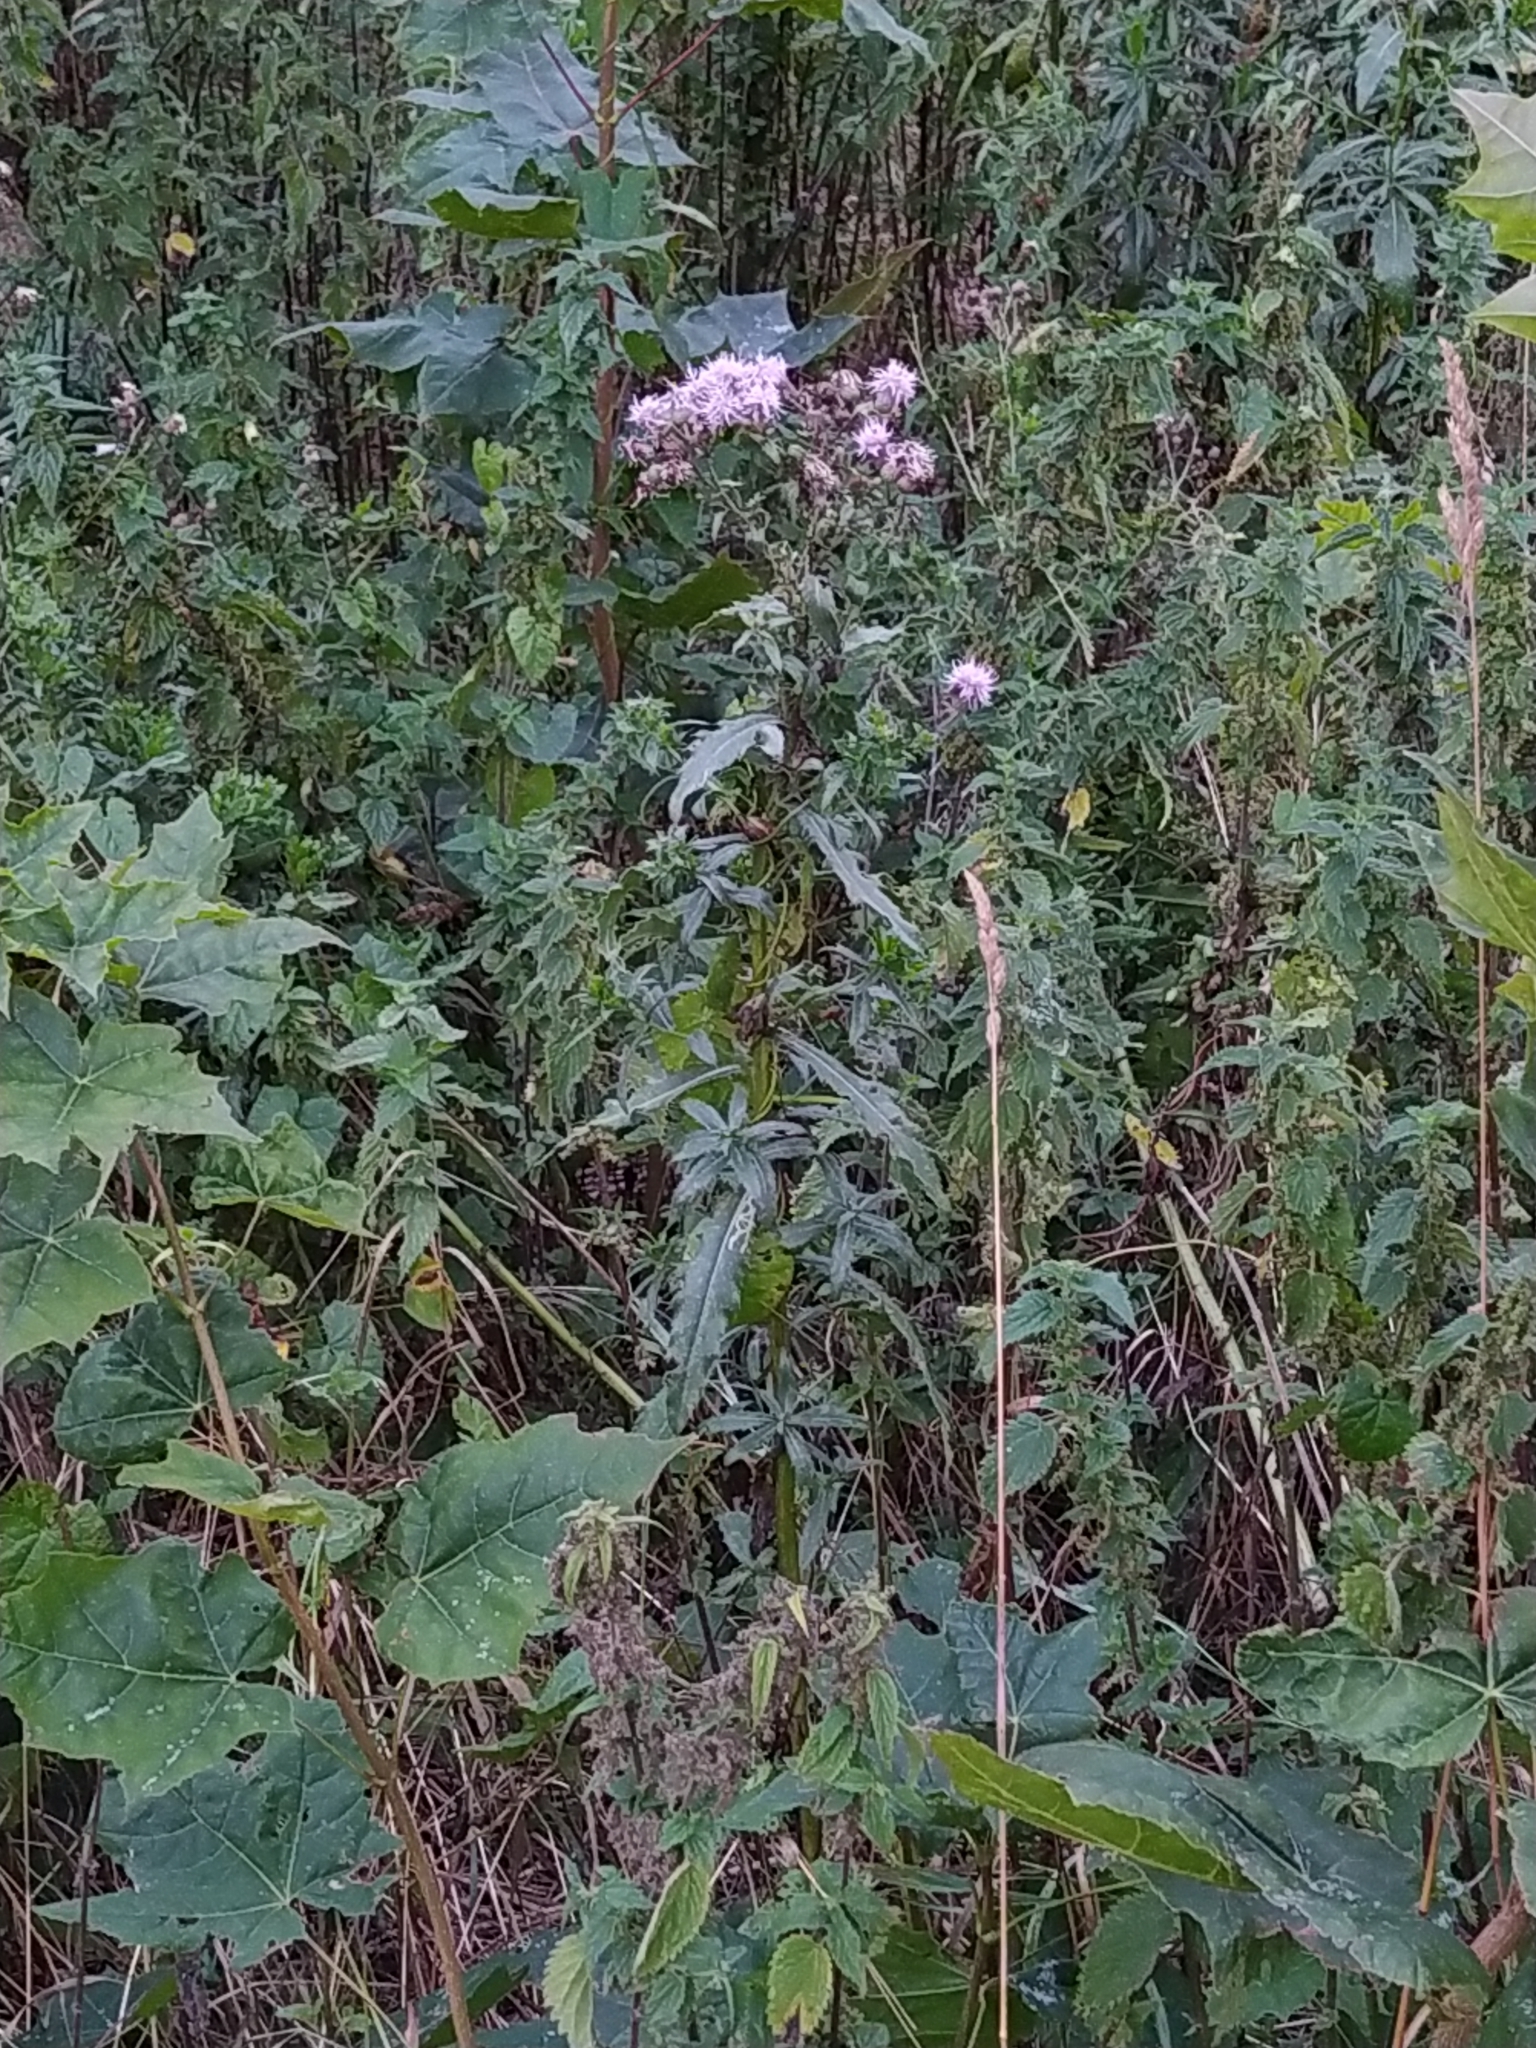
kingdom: Plantae
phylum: Tracheophyta
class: Magnoliopsida
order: Asterales
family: Asteraceae
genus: Cirsium
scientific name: Cirsium arvense
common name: Creeping thistle
